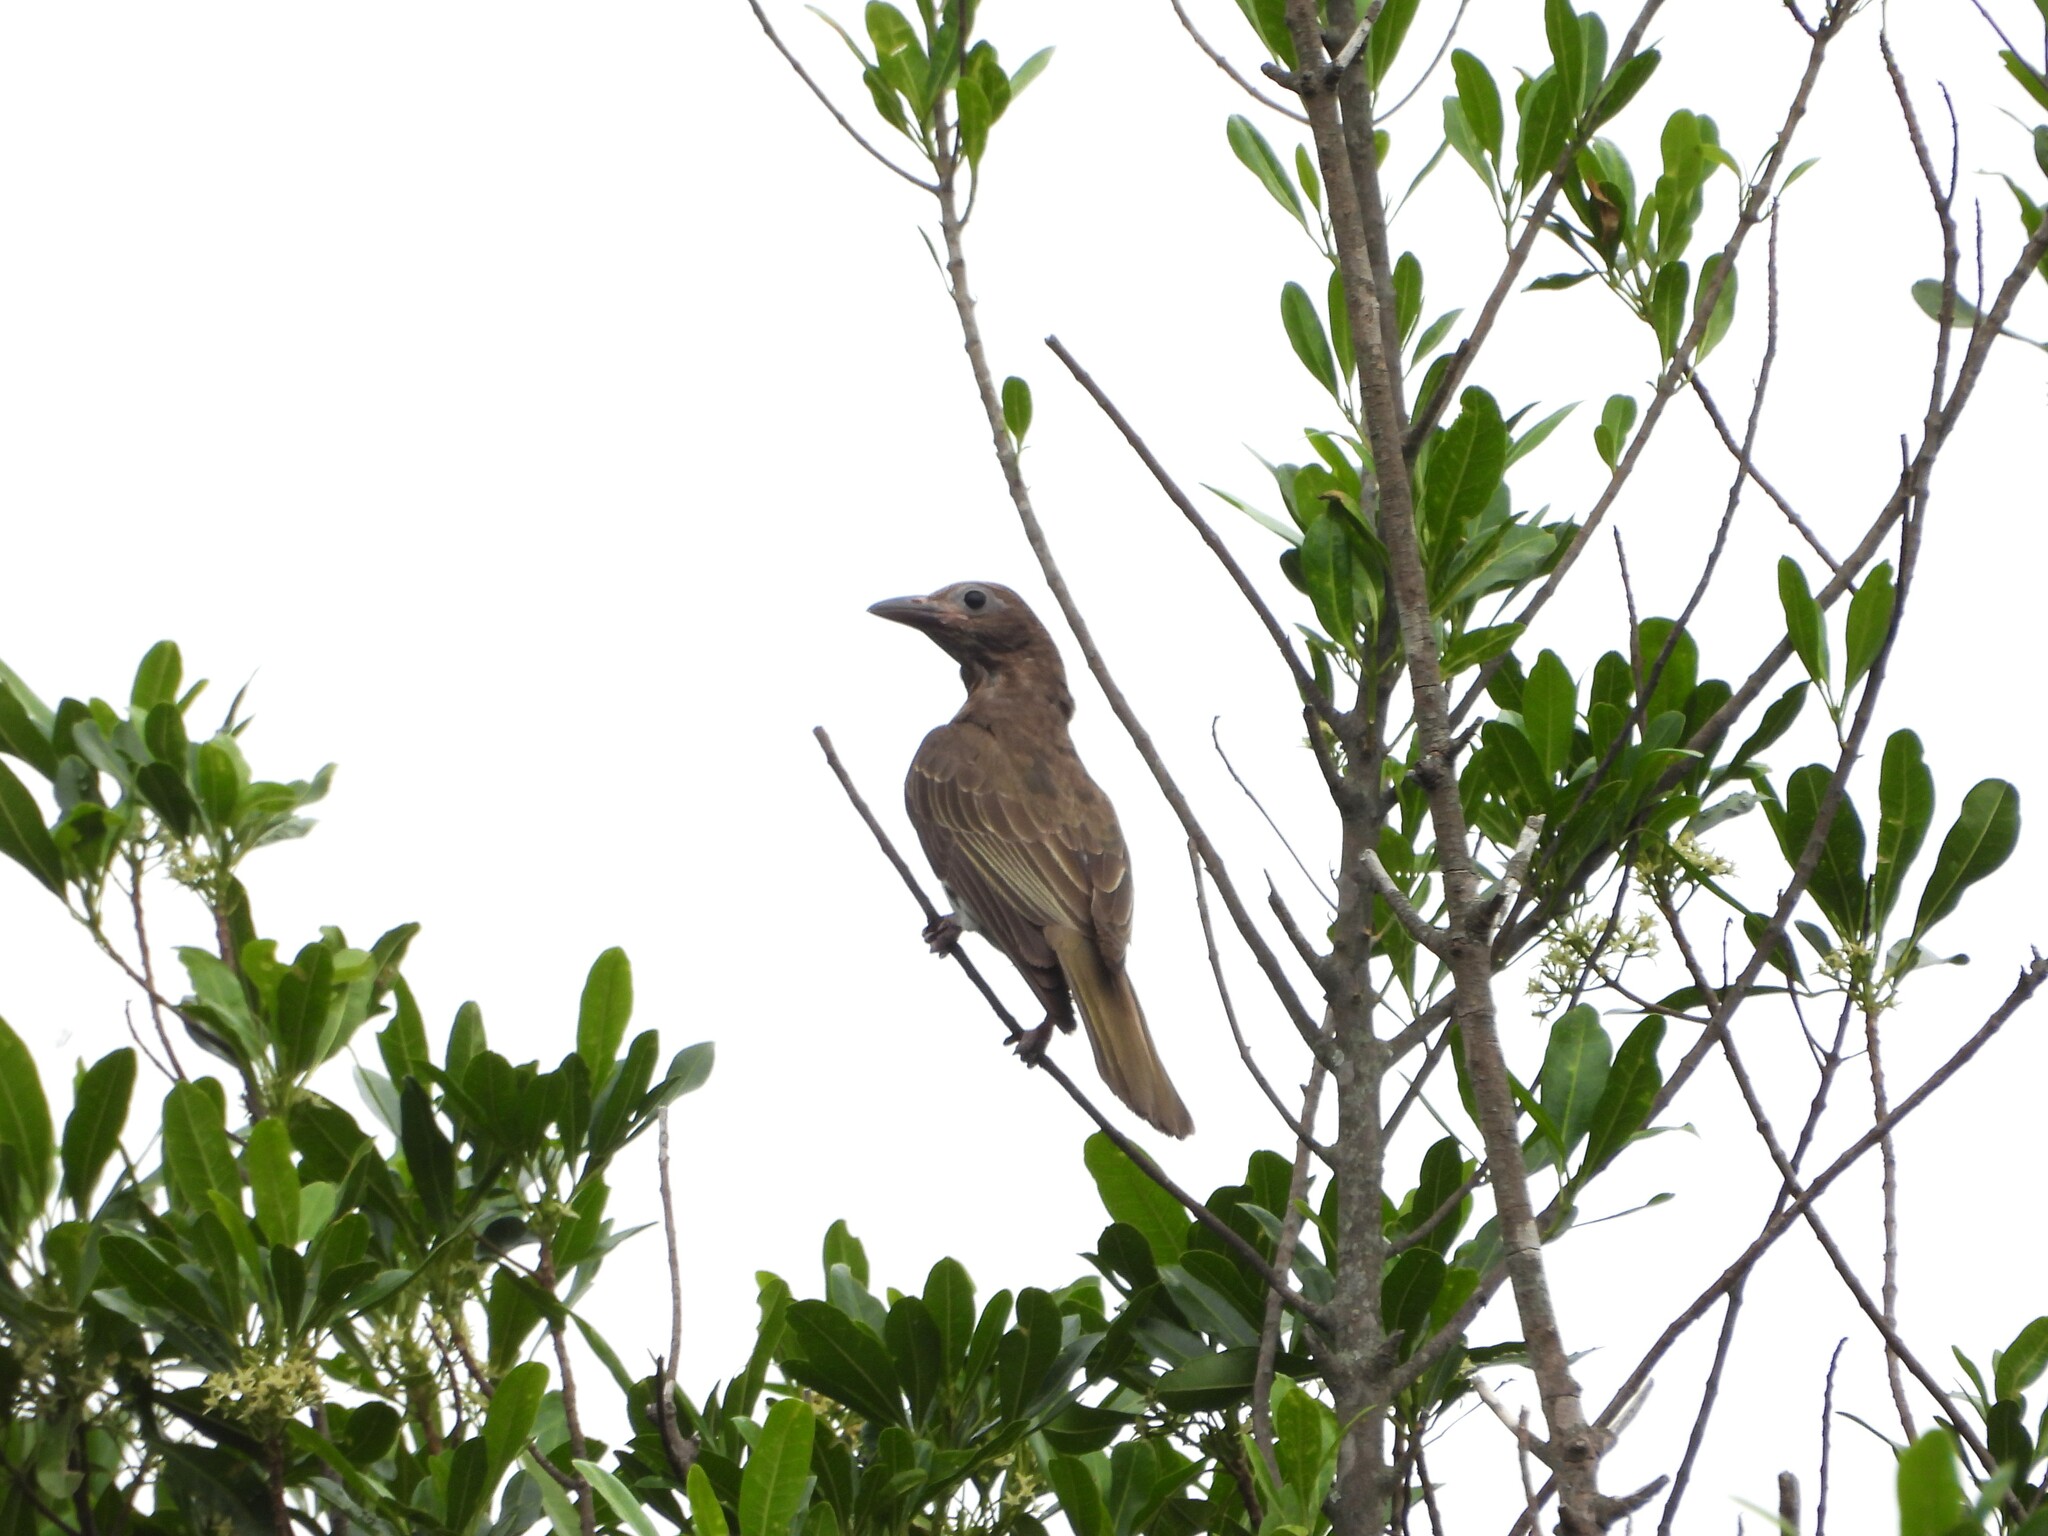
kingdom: Animalia
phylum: Chordata
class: Aves
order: Passeriformes
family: Oriolidae
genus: Sphecotheres
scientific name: Sphecotheres vieilloti
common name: Australasian figbird
